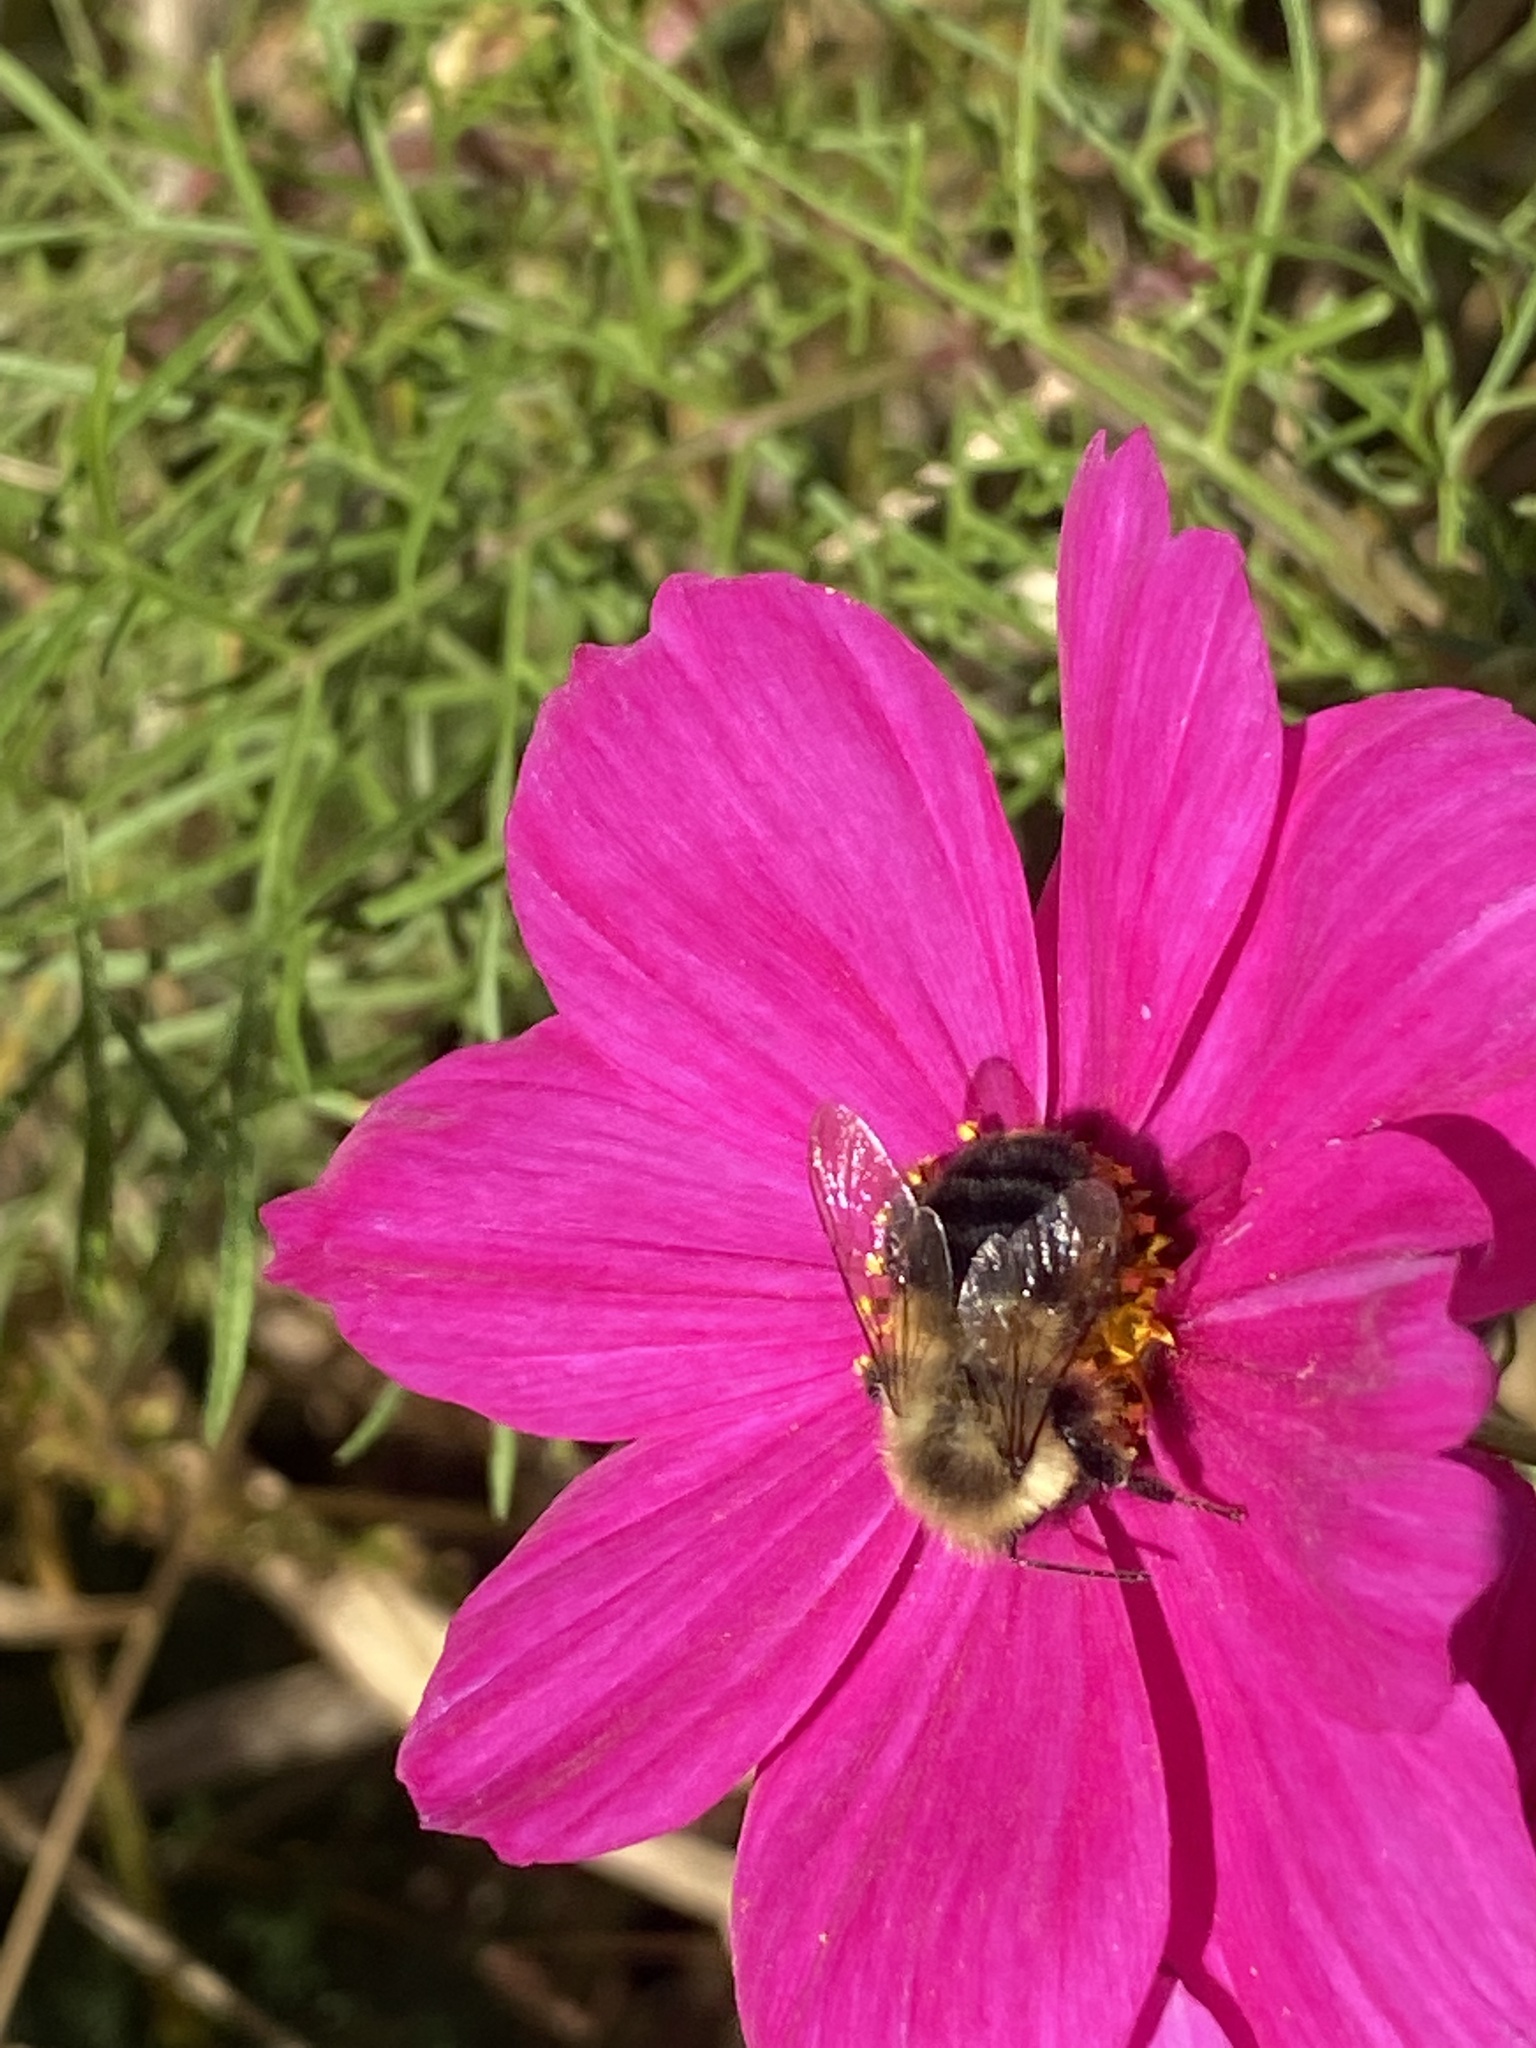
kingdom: Animalia
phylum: Arthropoda
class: Insecta
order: Hymenoptera
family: Apidae
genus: Bombus
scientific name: Bombus impatiens
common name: Common eastern bumble bee
